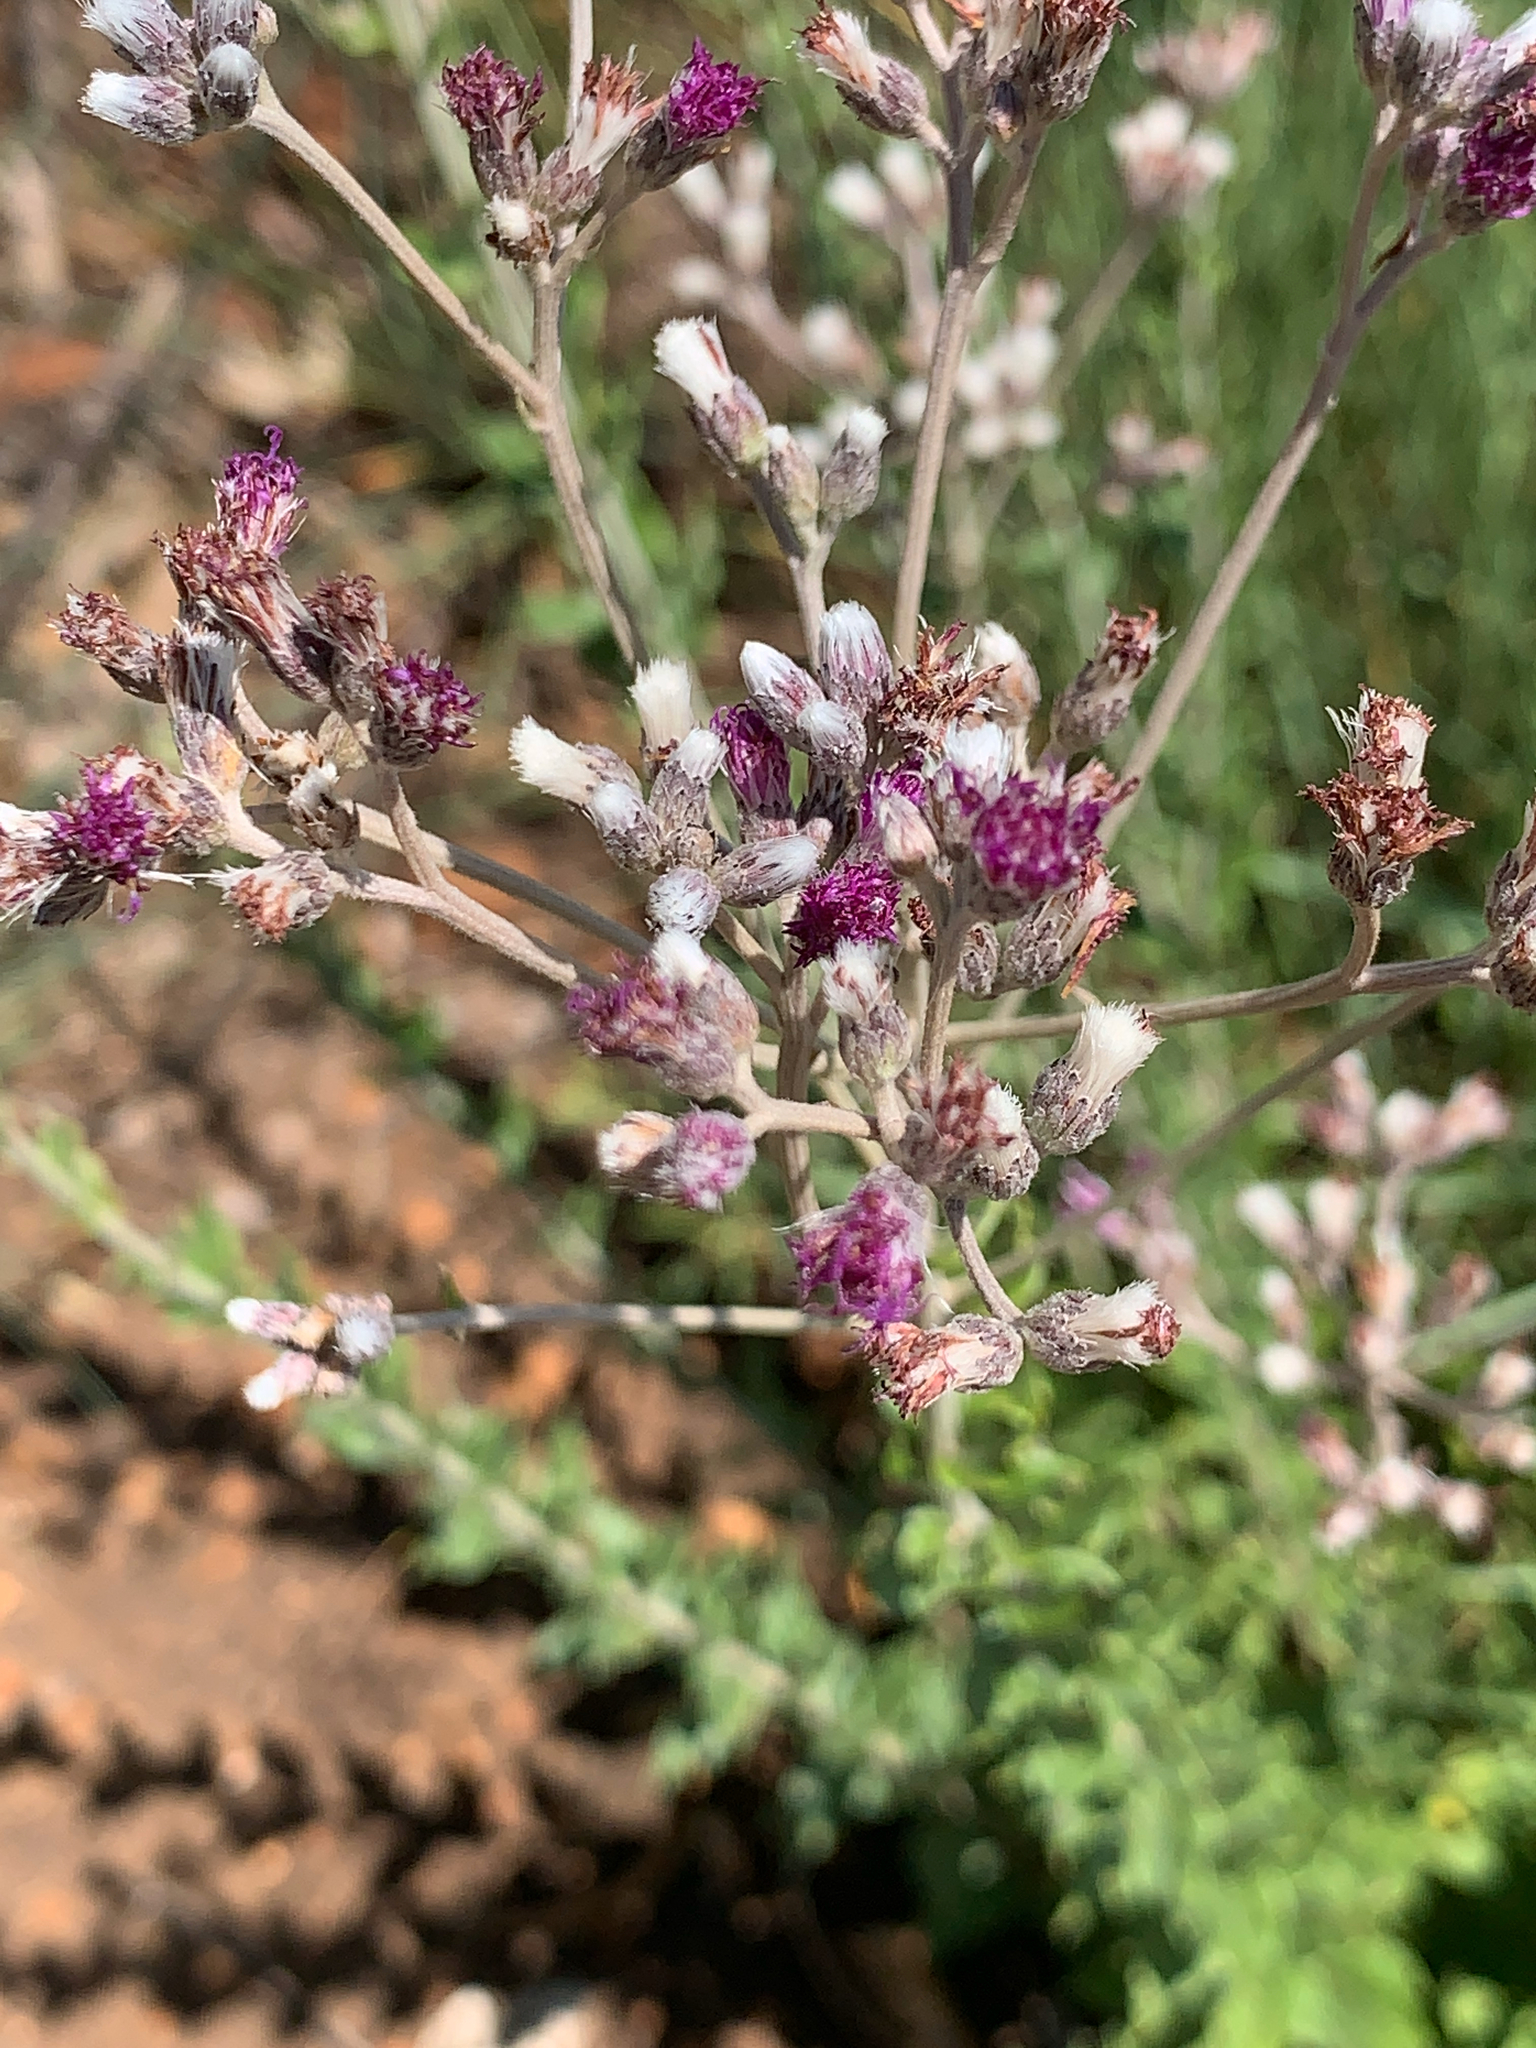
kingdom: Plantae
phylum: Tracheophyta
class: Magnoliopsida
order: Asterales
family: Asteraceae
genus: Hilliardiella
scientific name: Hilliardiella oligocephala
